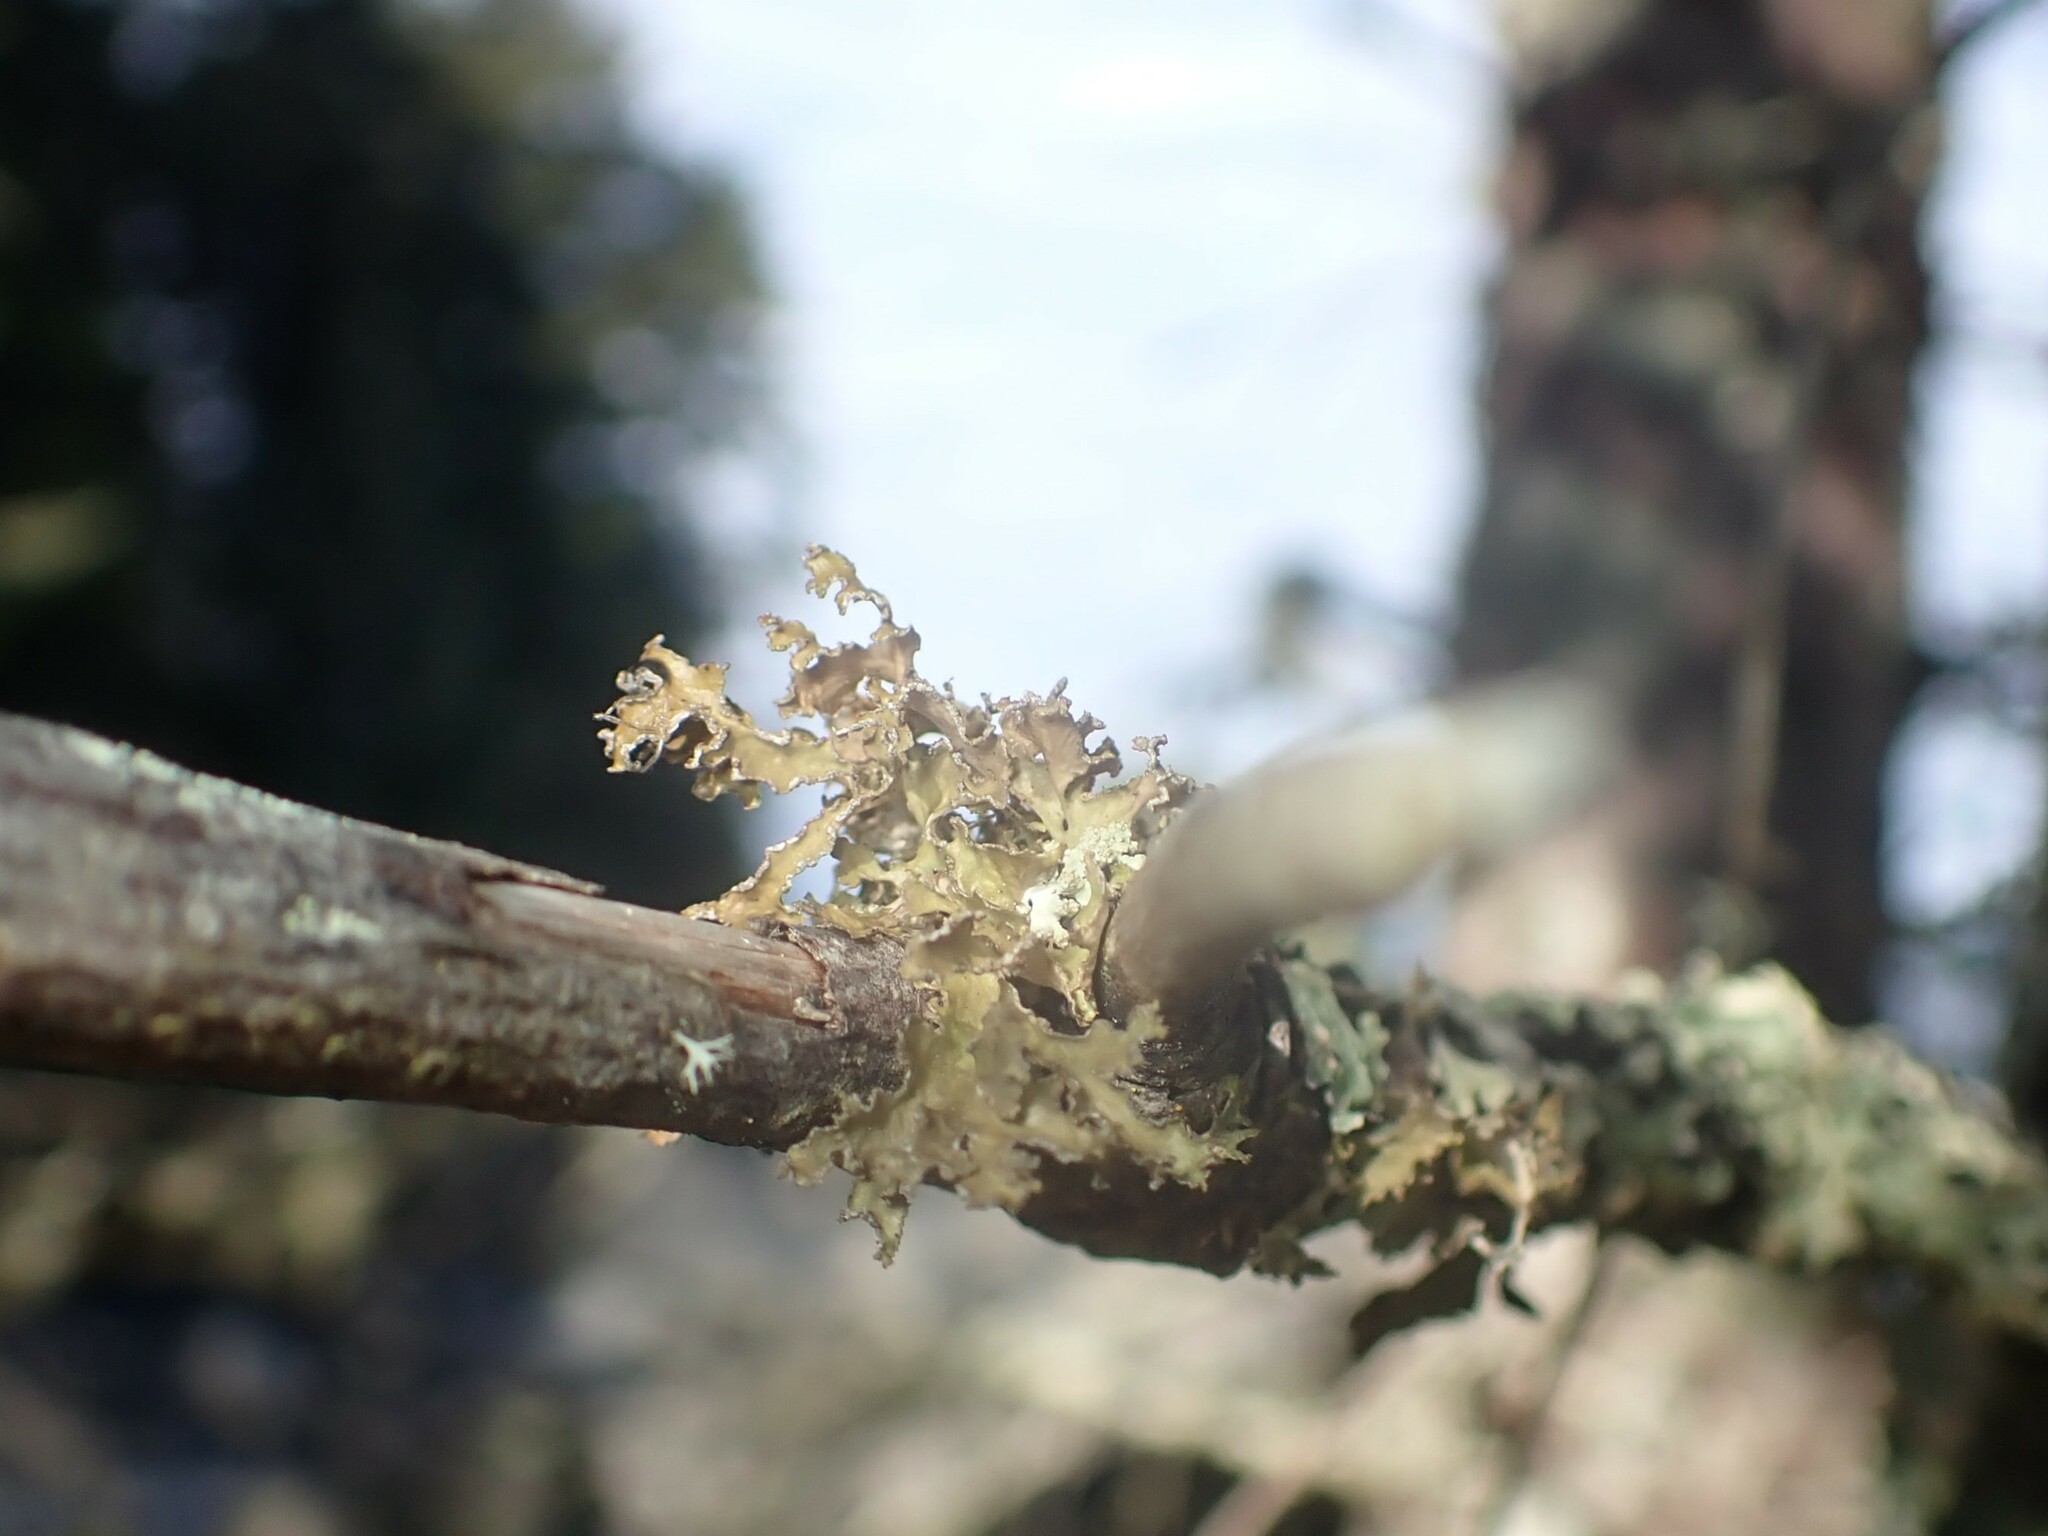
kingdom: Fungi
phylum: Ascomycota
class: Lecanoromycetes
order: Lecanorales
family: Parmeliaceae
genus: Nephromopsis
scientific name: Nephromopsis chlorophylla
